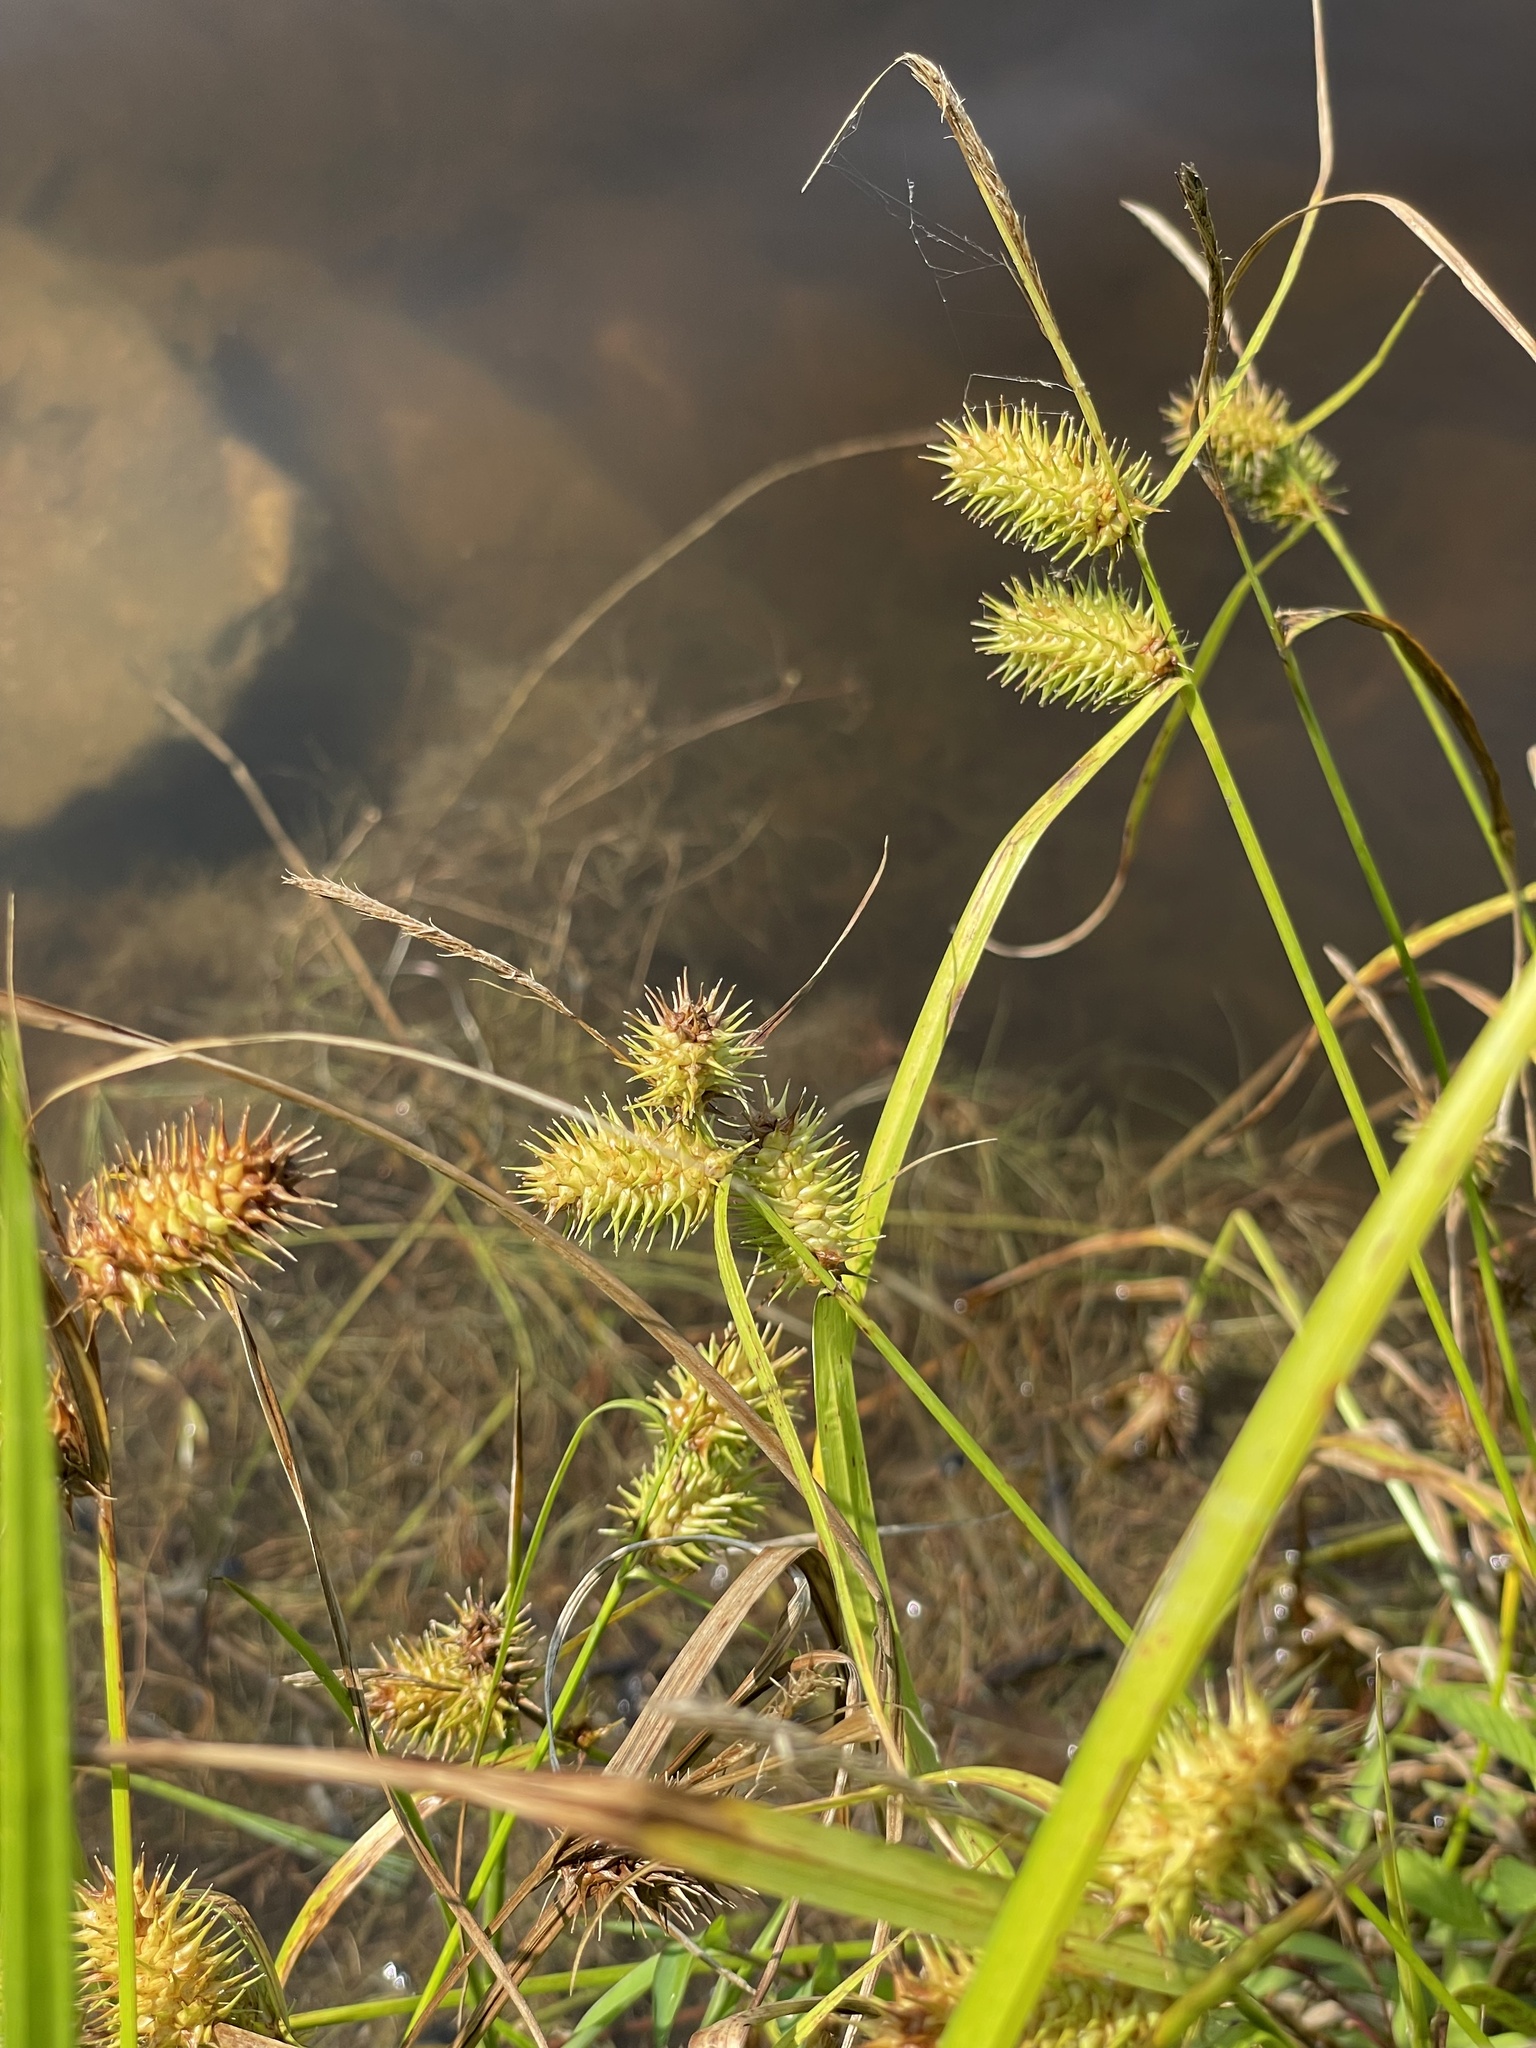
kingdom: Plantae
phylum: Tracheophyta
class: Liliopsida
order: Poales
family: Cyperaceae
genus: Carex
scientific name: Carex lurida
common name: Sallow sedge
